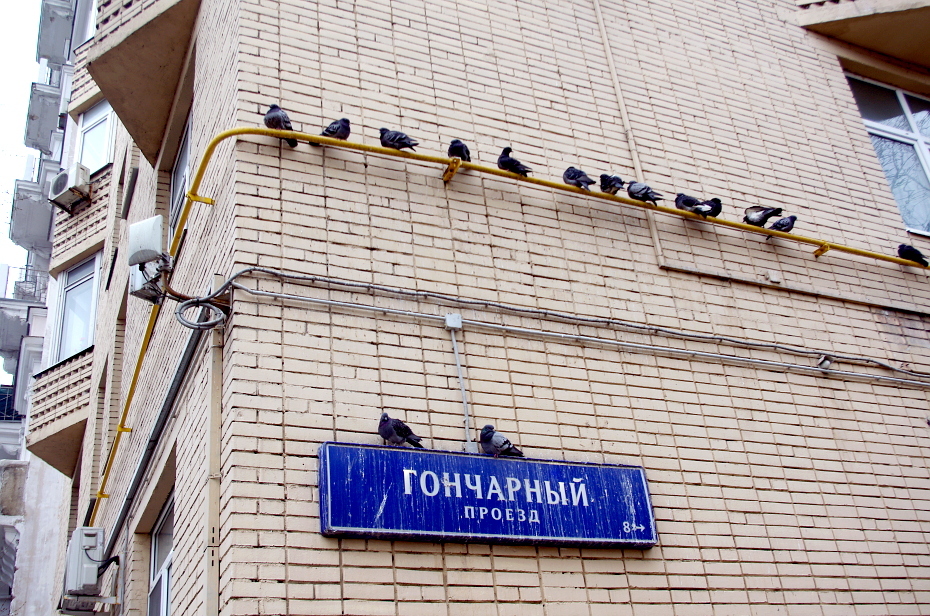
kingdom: Animalia
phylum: Chordata
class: Aves
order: Columbiformes
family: Columbidae
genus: Columba
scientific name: Columba livia
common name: Rock pigeon
